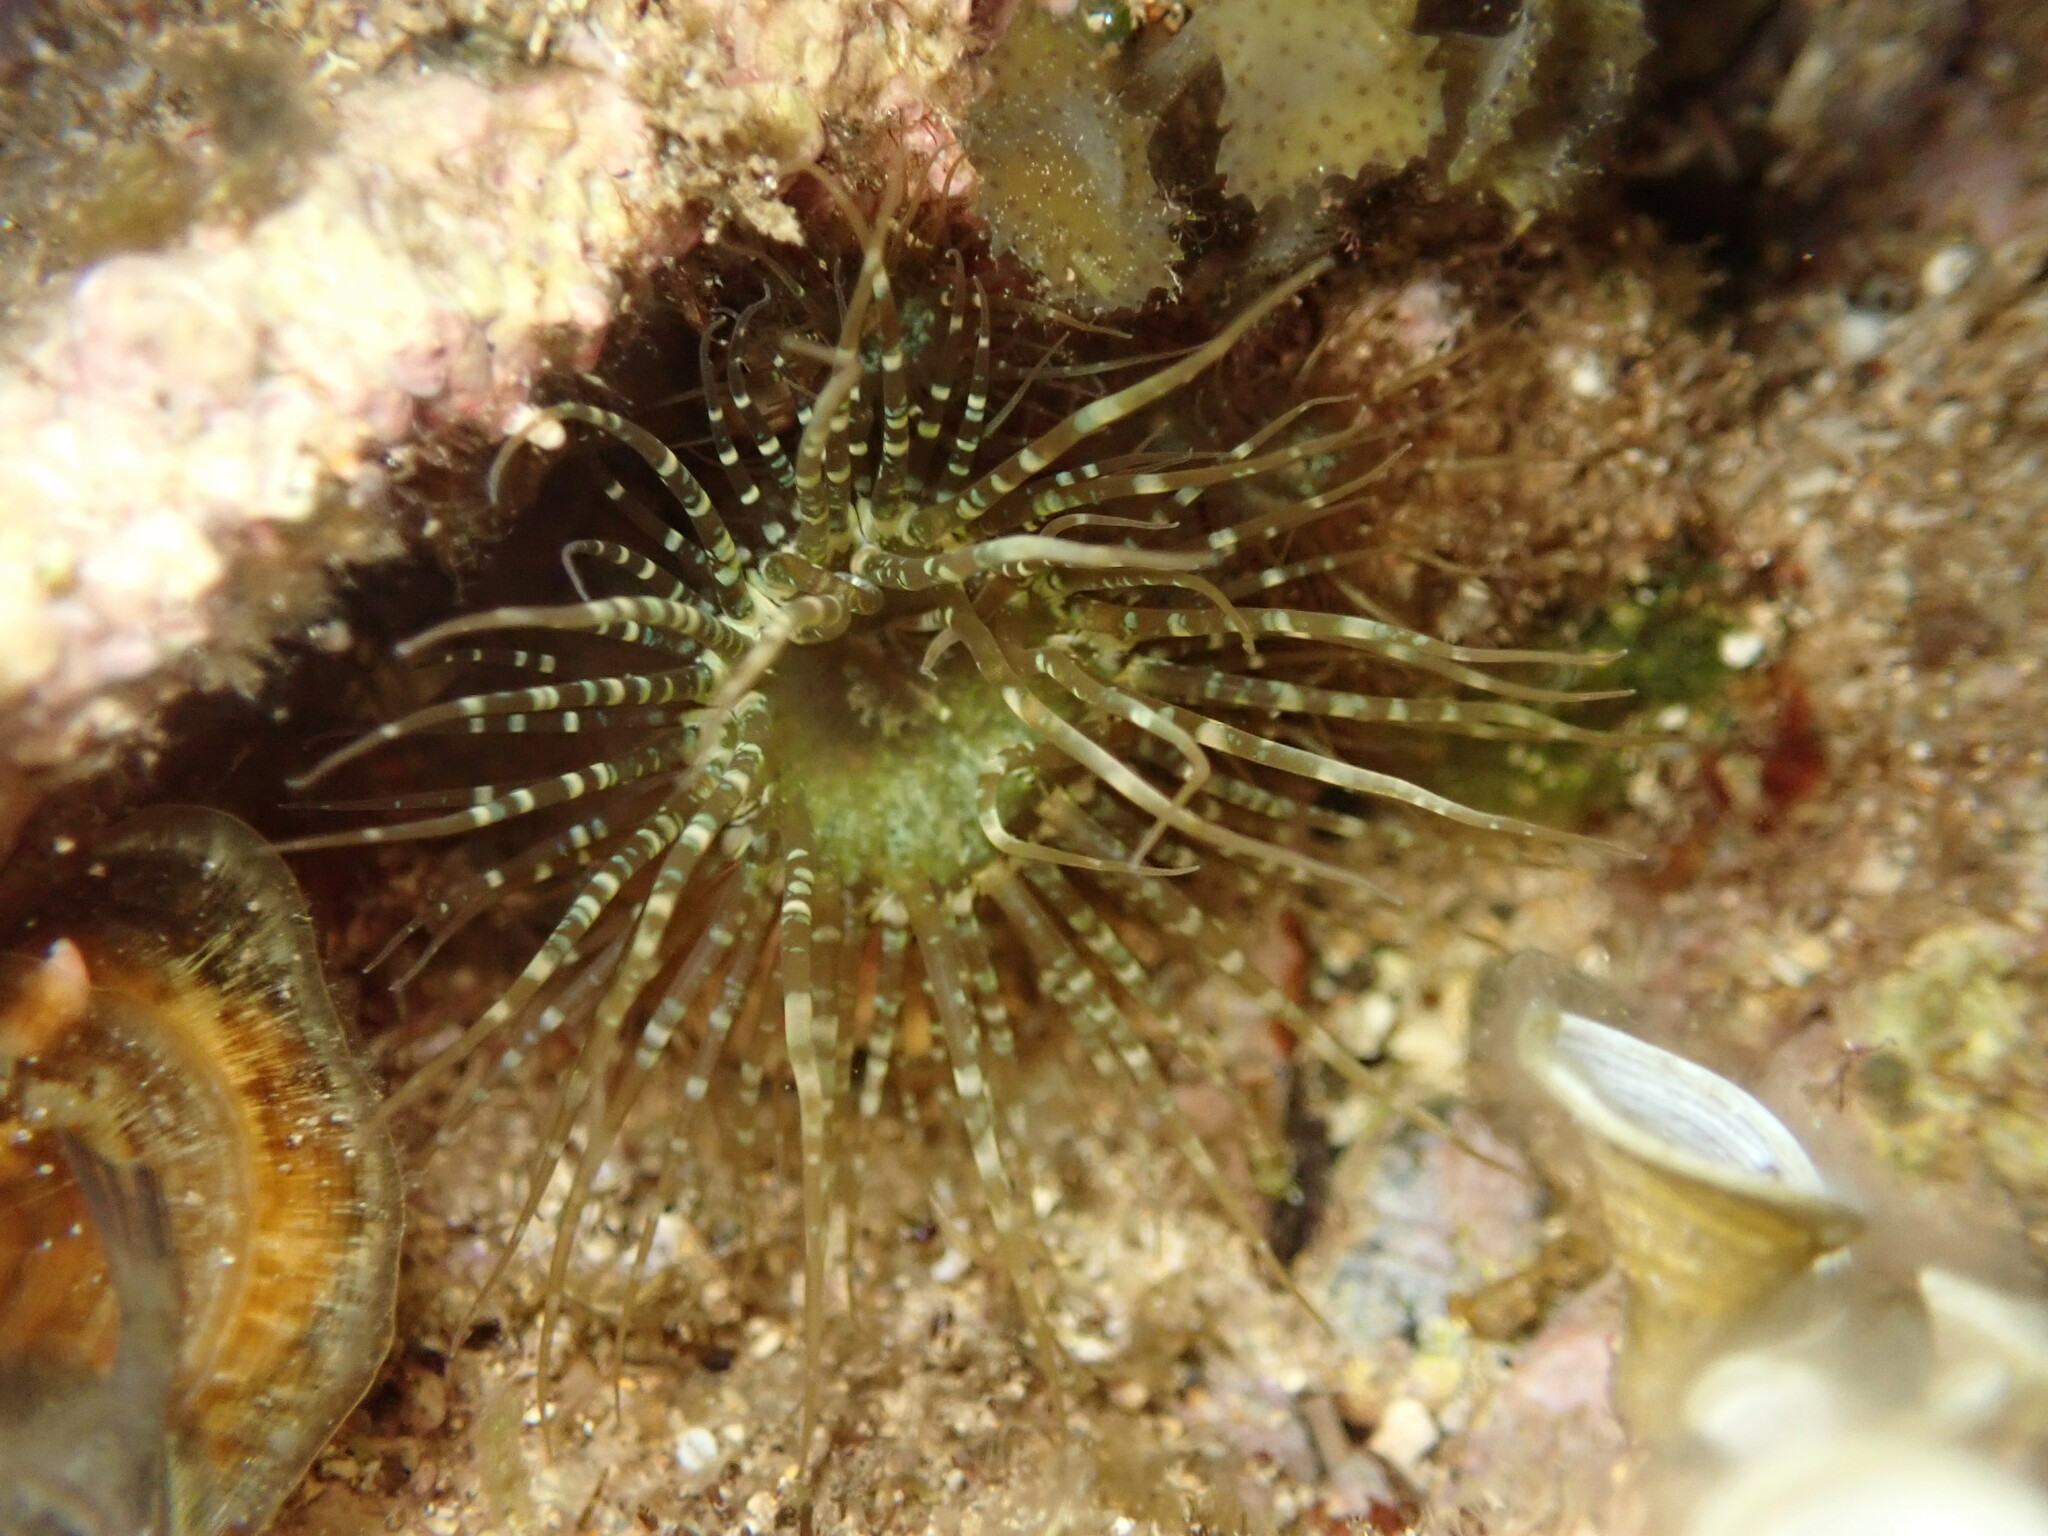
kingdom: Animalia
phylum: Cnidaria
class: Anthozoa
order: Actiniaria
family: Aiptasiidae
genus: Exaiptasia
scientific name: Exaiptasia diaphana
